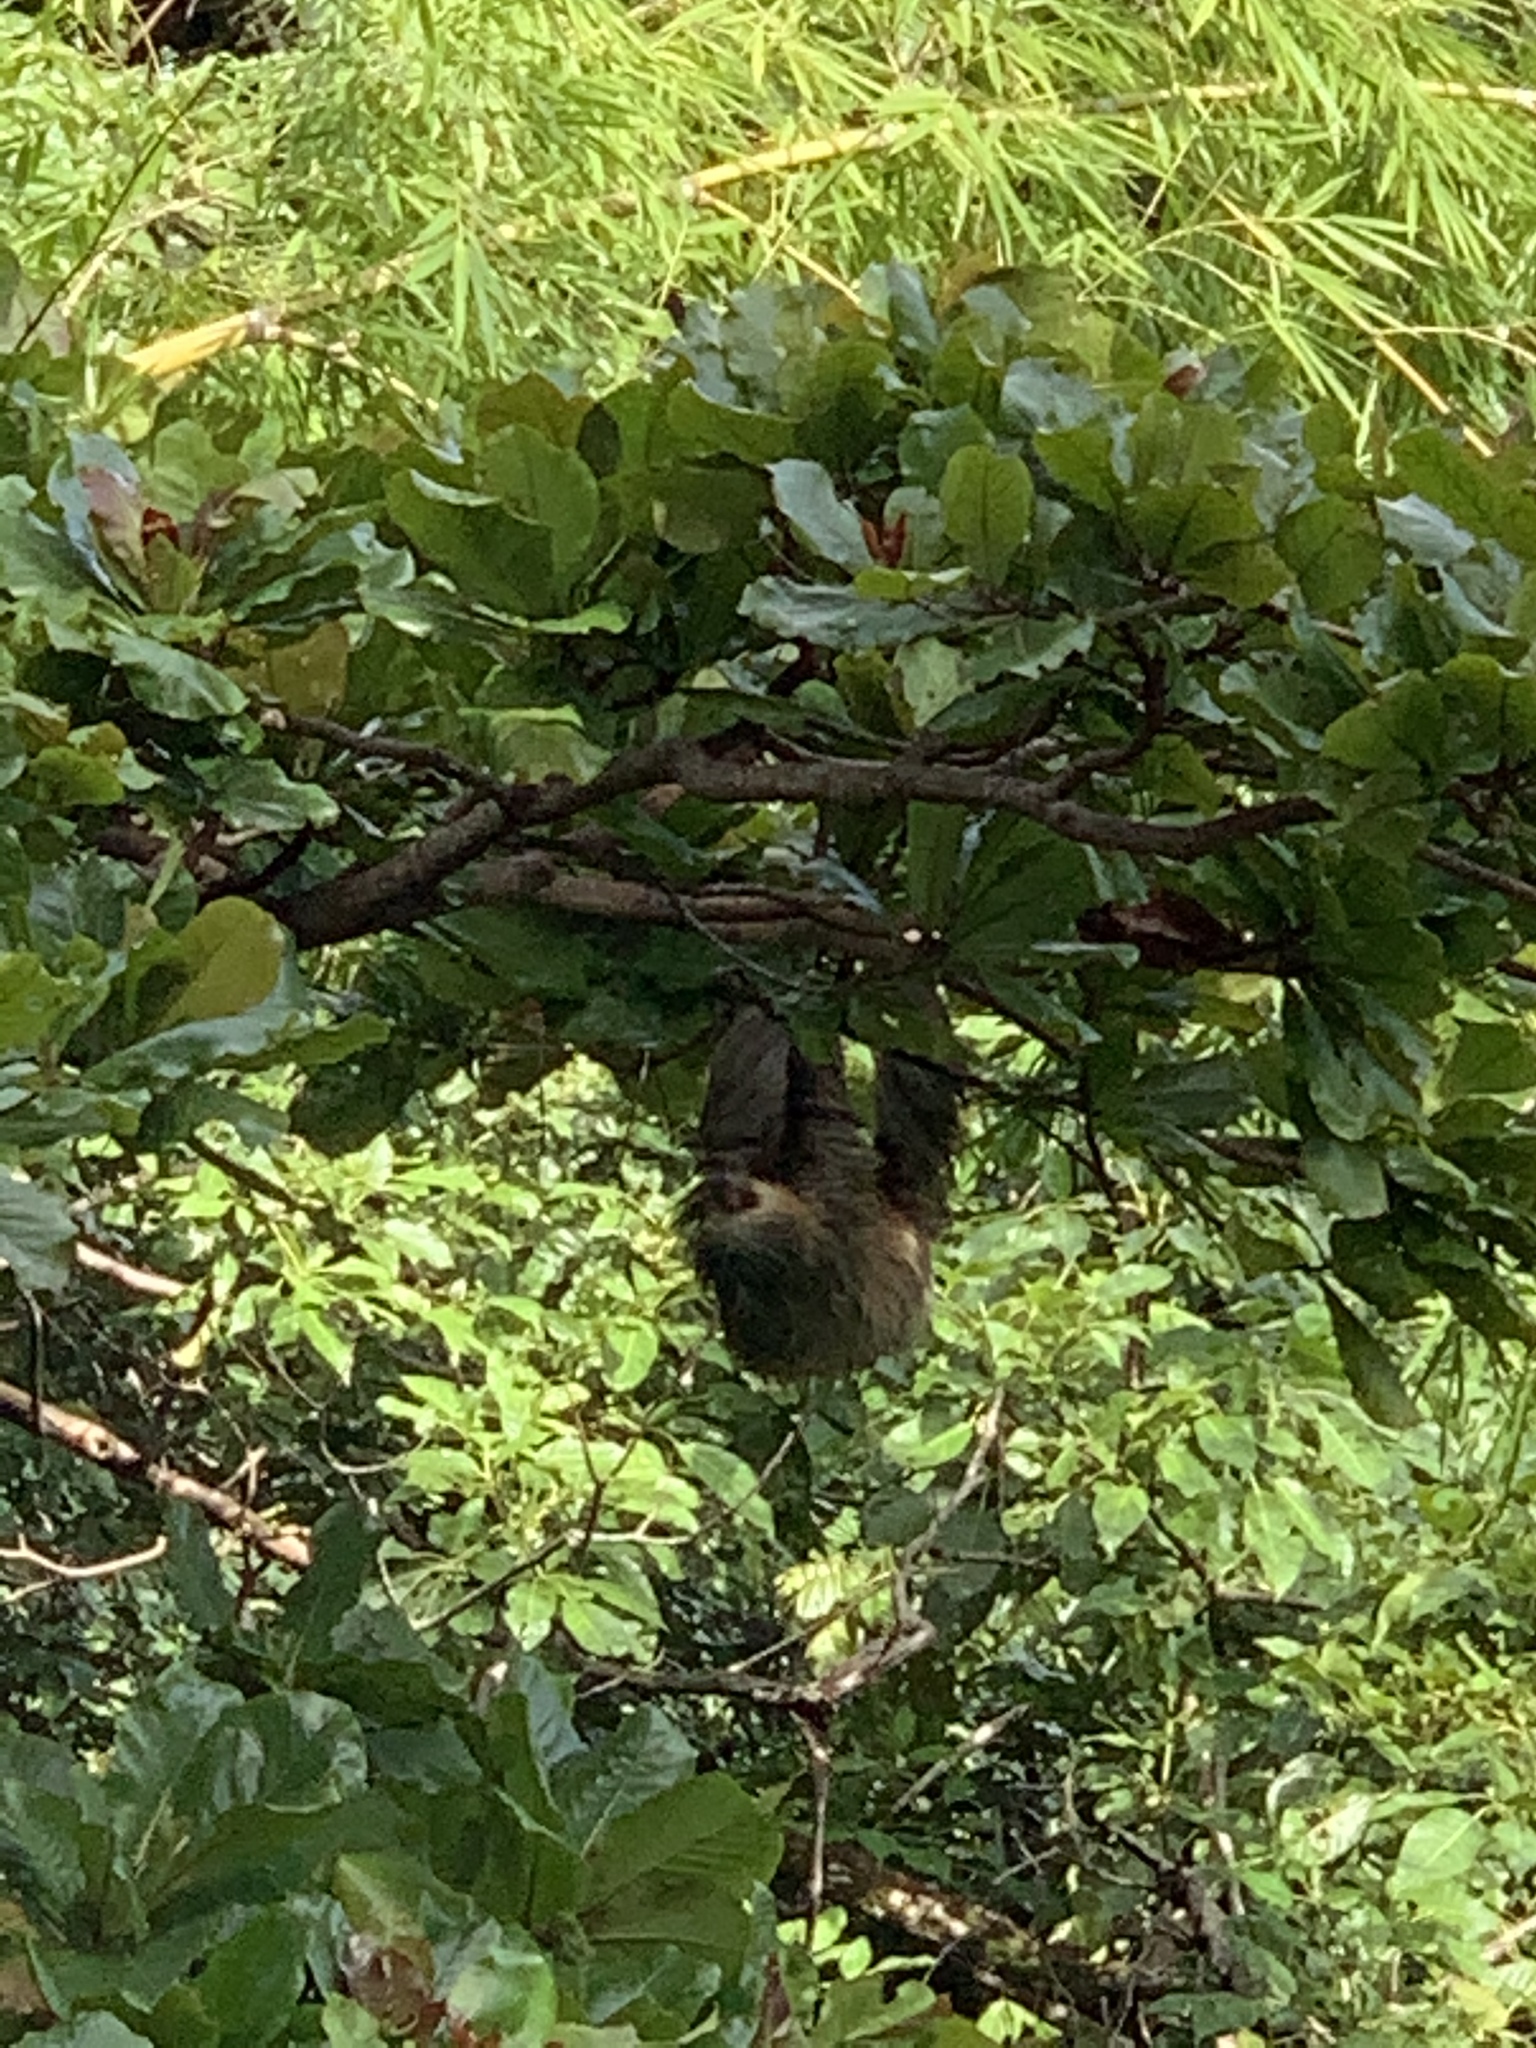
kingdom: Animalia
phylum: Chordata
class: Mammalia
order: Pilosa
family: Megalonychidae
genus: Choloepus
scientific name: Choloepus hoffmanni
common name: Hoffmann's two-toed sloth
